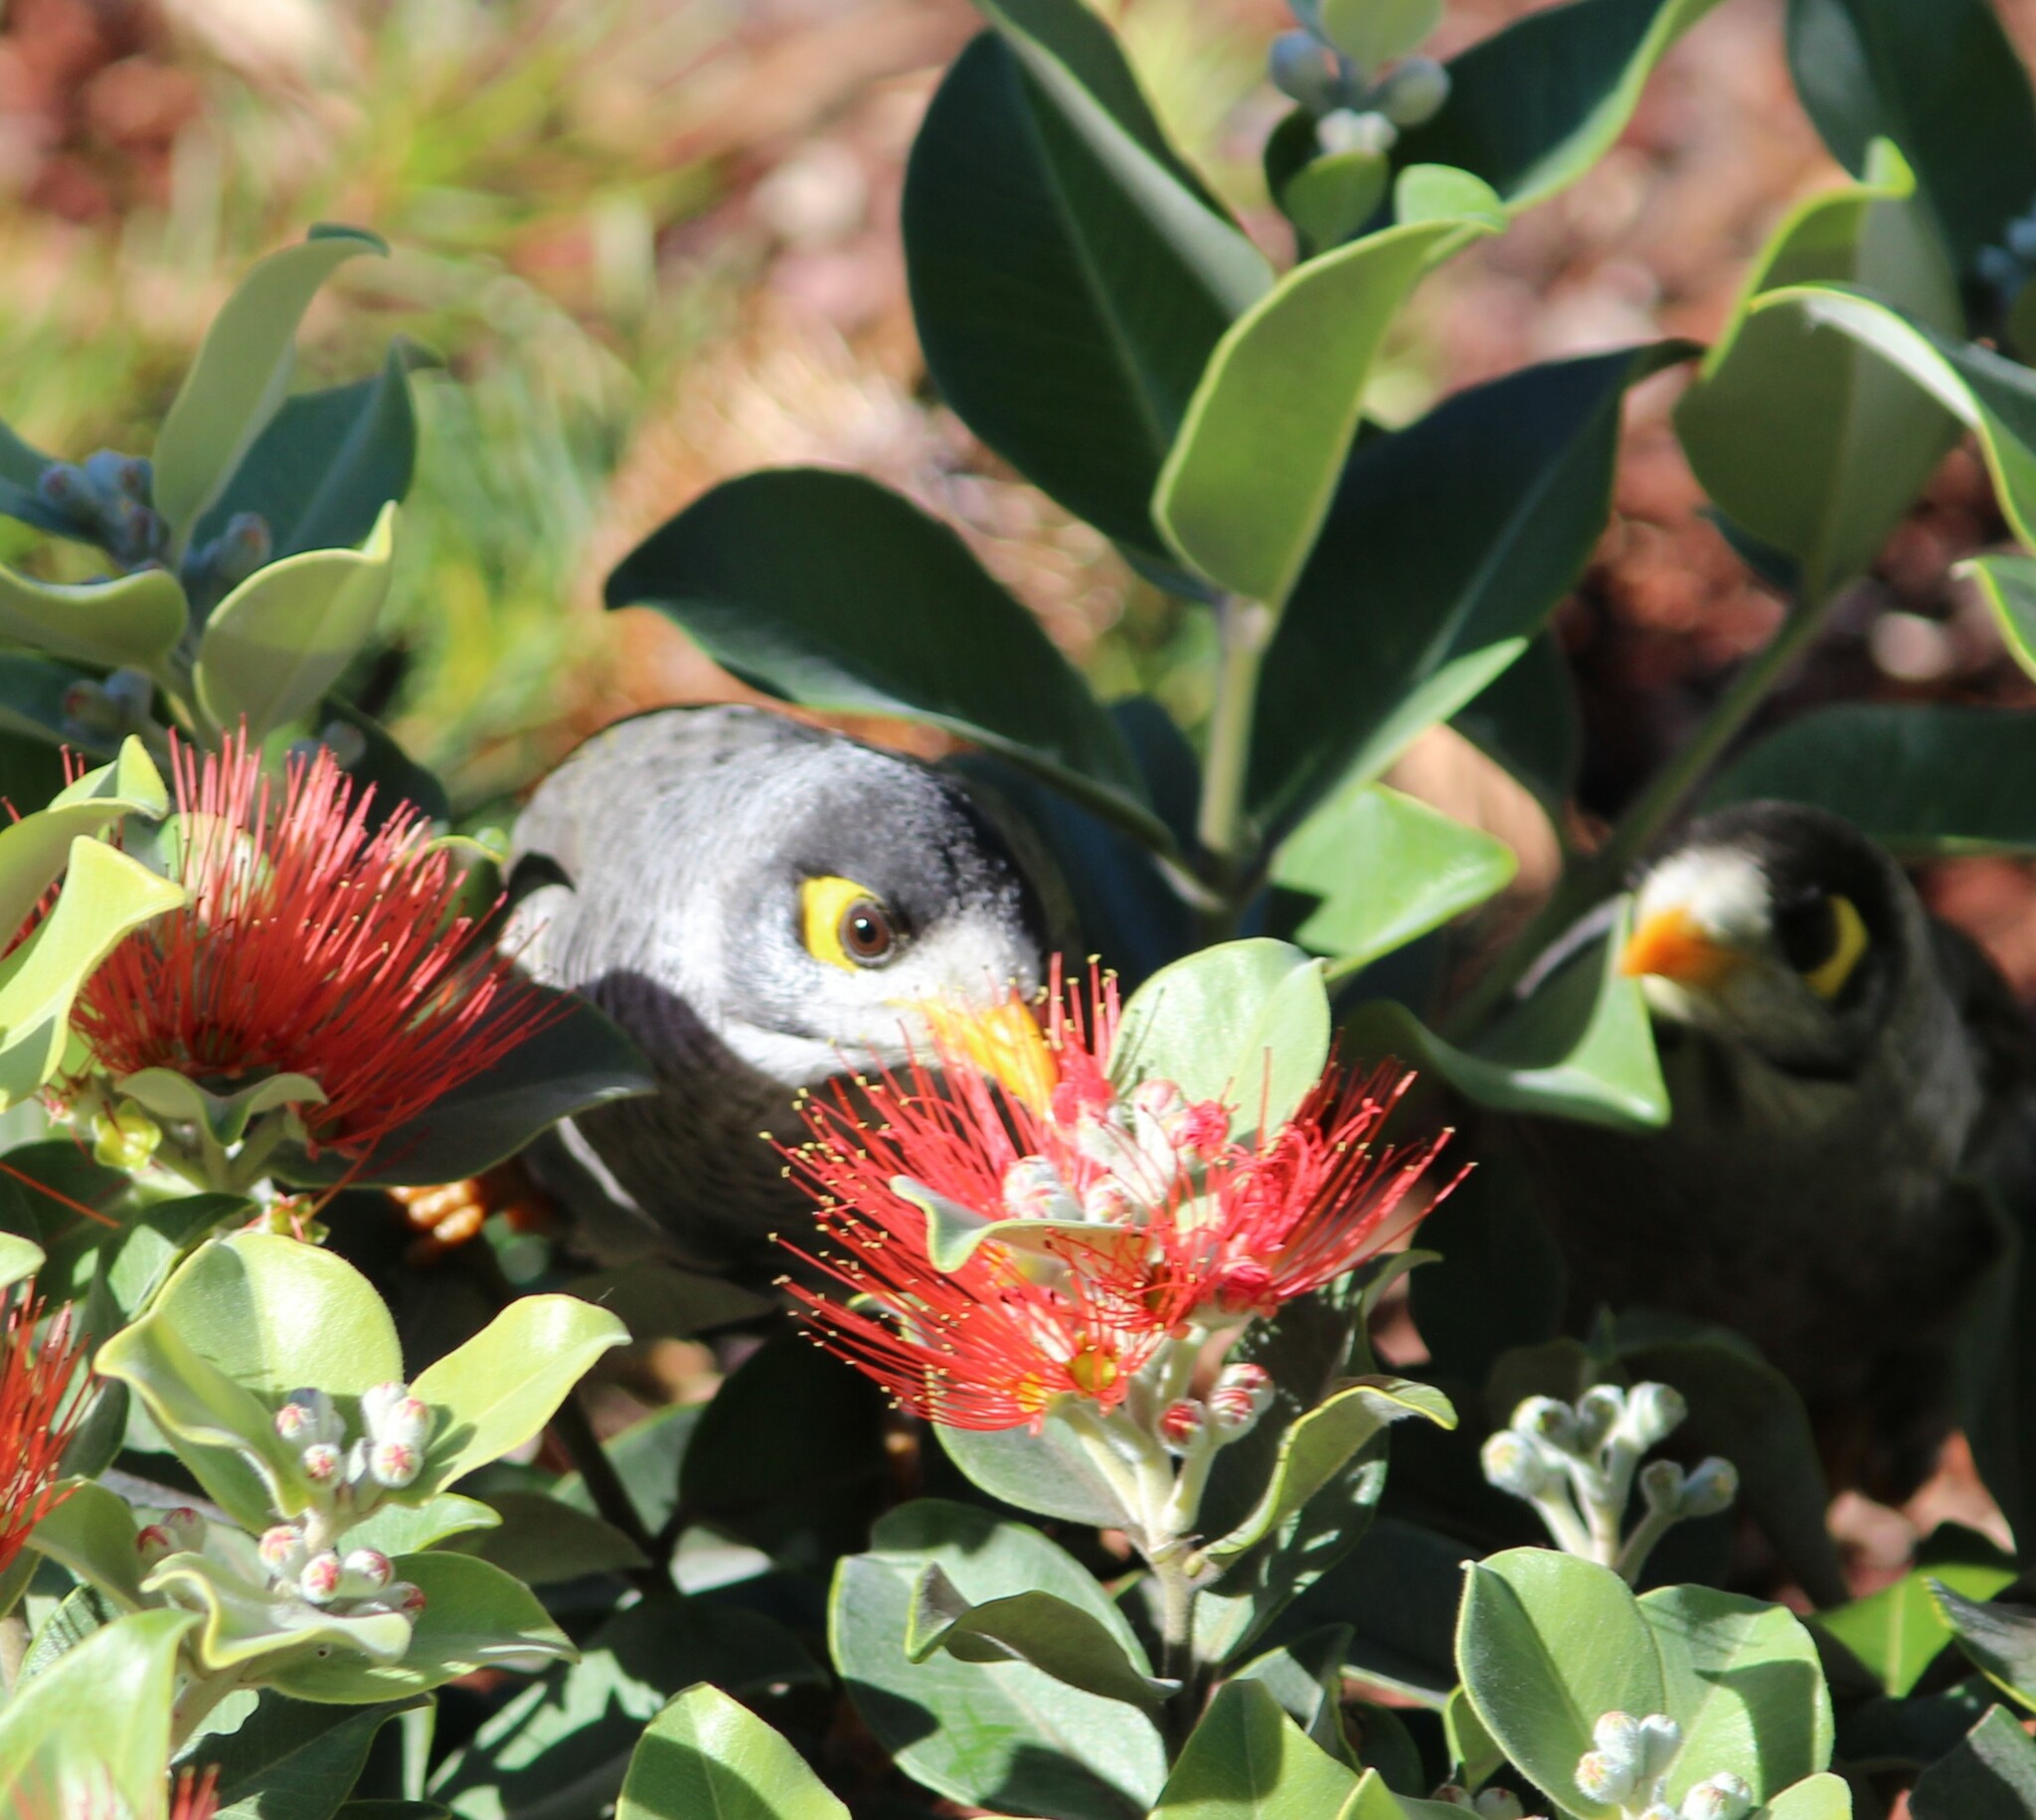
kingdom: Animalia
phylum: Chordata
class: Aves
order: Passeriformes
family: Meliphagidae
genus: Manorina
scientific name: Manorina melanocephala
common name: Noisy miner
